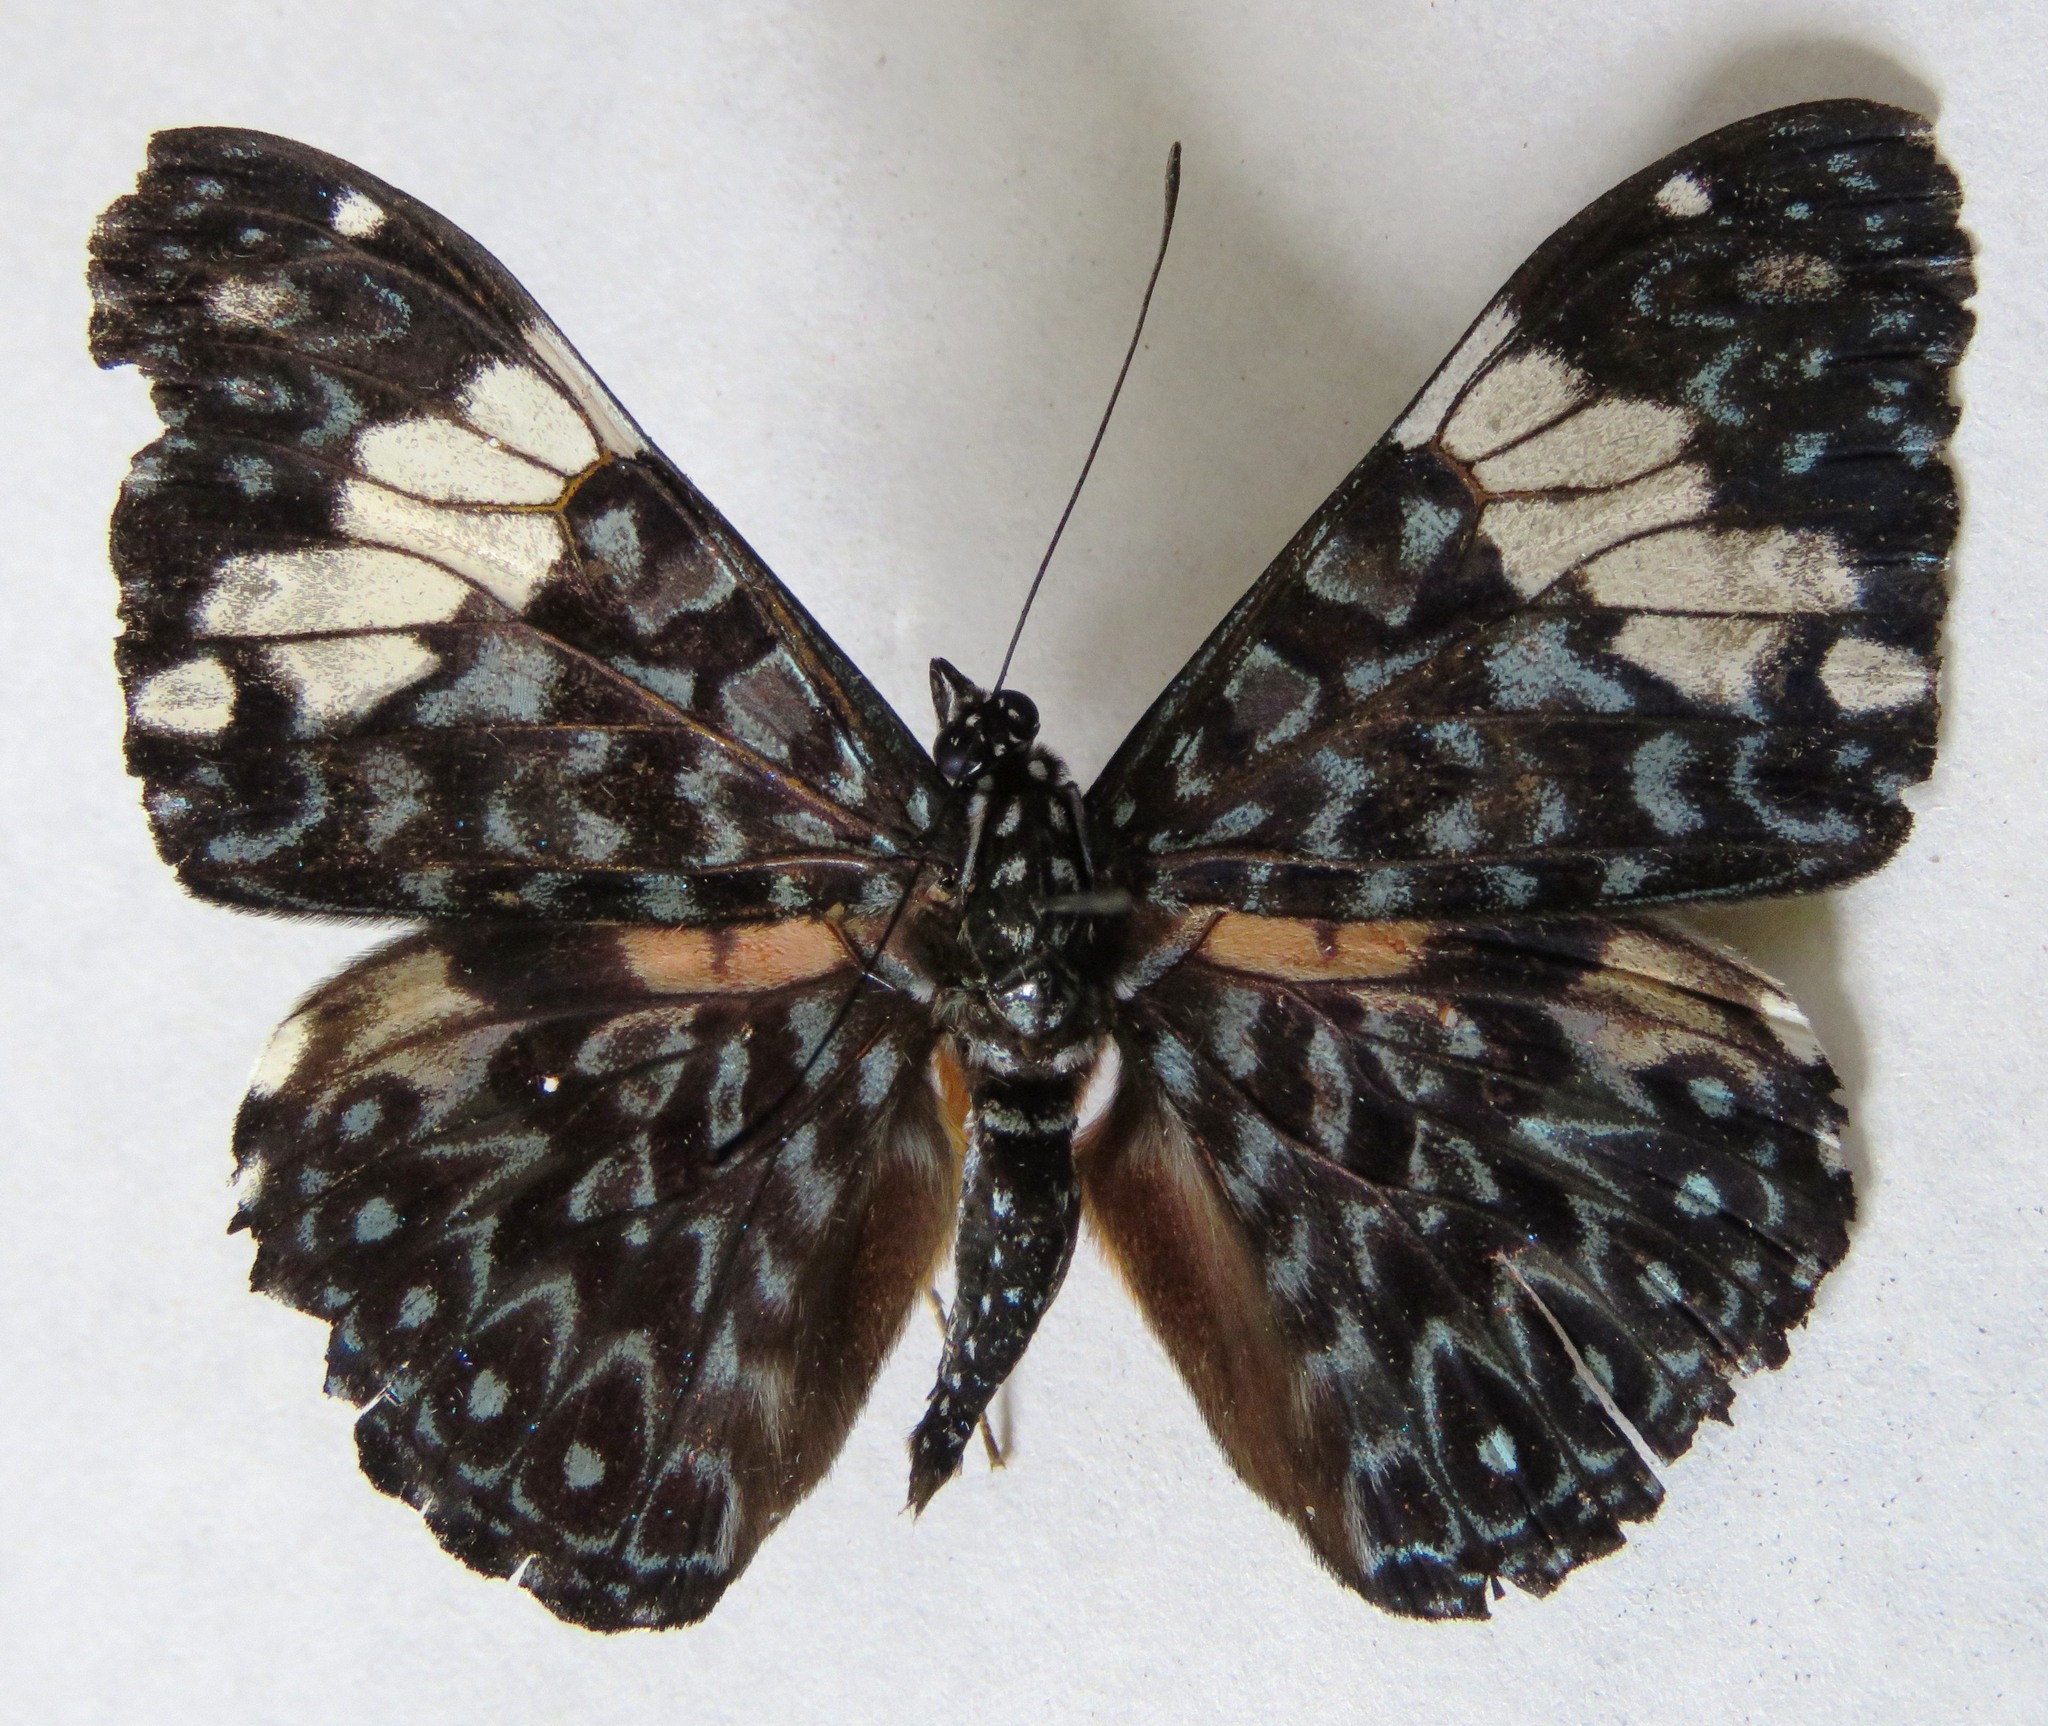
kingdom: Animalia
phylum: Arthropoda
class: Insecta
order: Lepidoptera
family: Nymphalidae
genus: Hamadryas
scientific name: Hamadryas amphinome
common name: Red cracker
